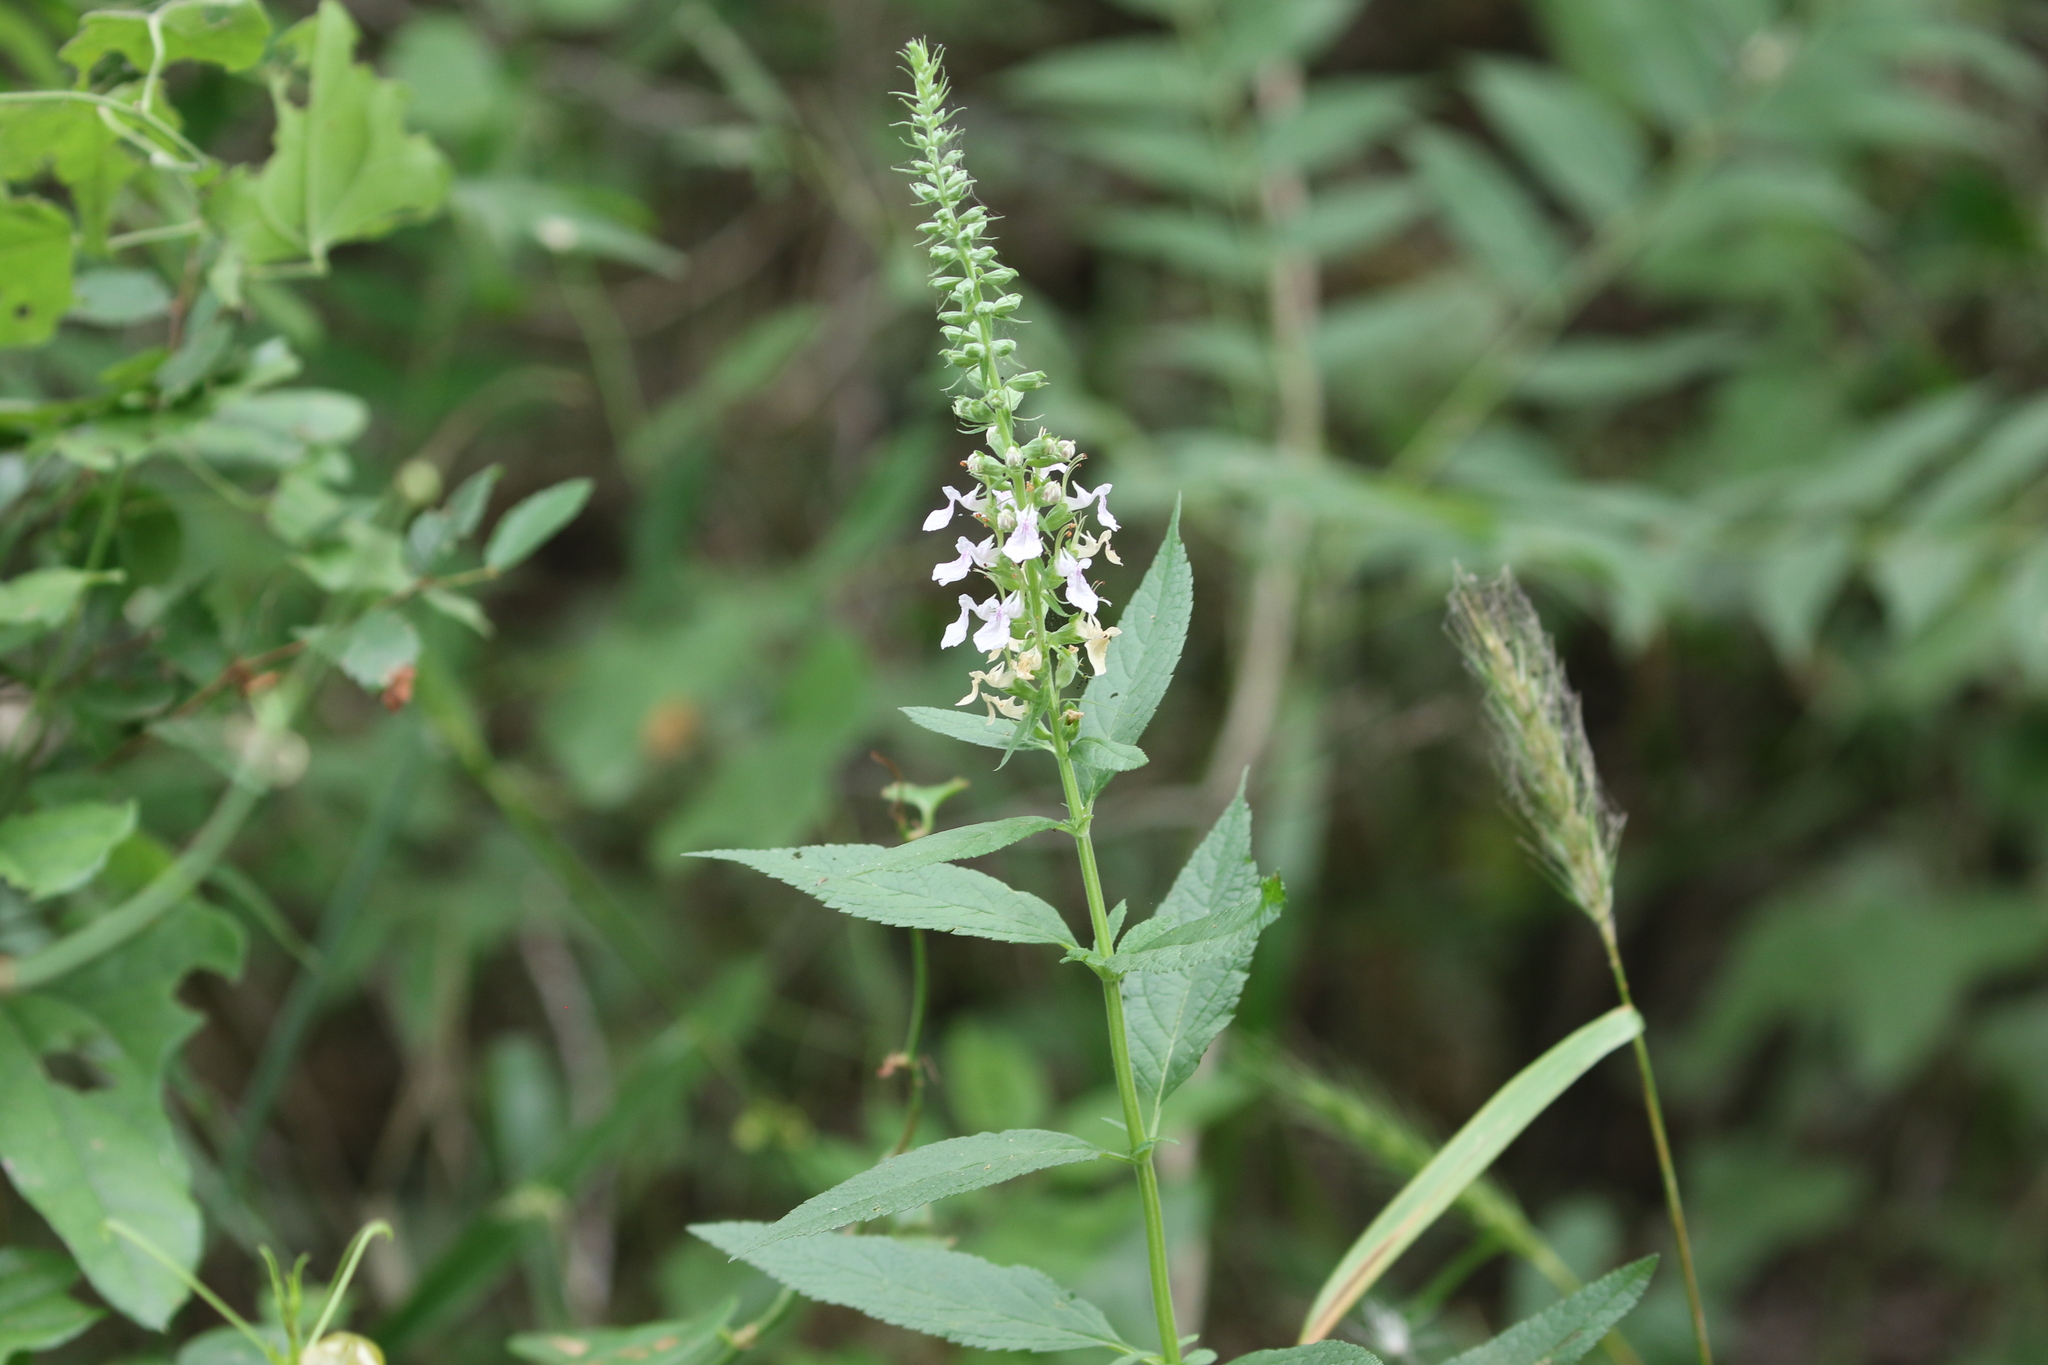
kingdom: Plantae
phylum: Tracheophyta
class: Magnoliopsida
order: Lamiales
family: Lamiaceae
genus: Teucrium
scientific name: Teucrium canadense
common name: American germander
